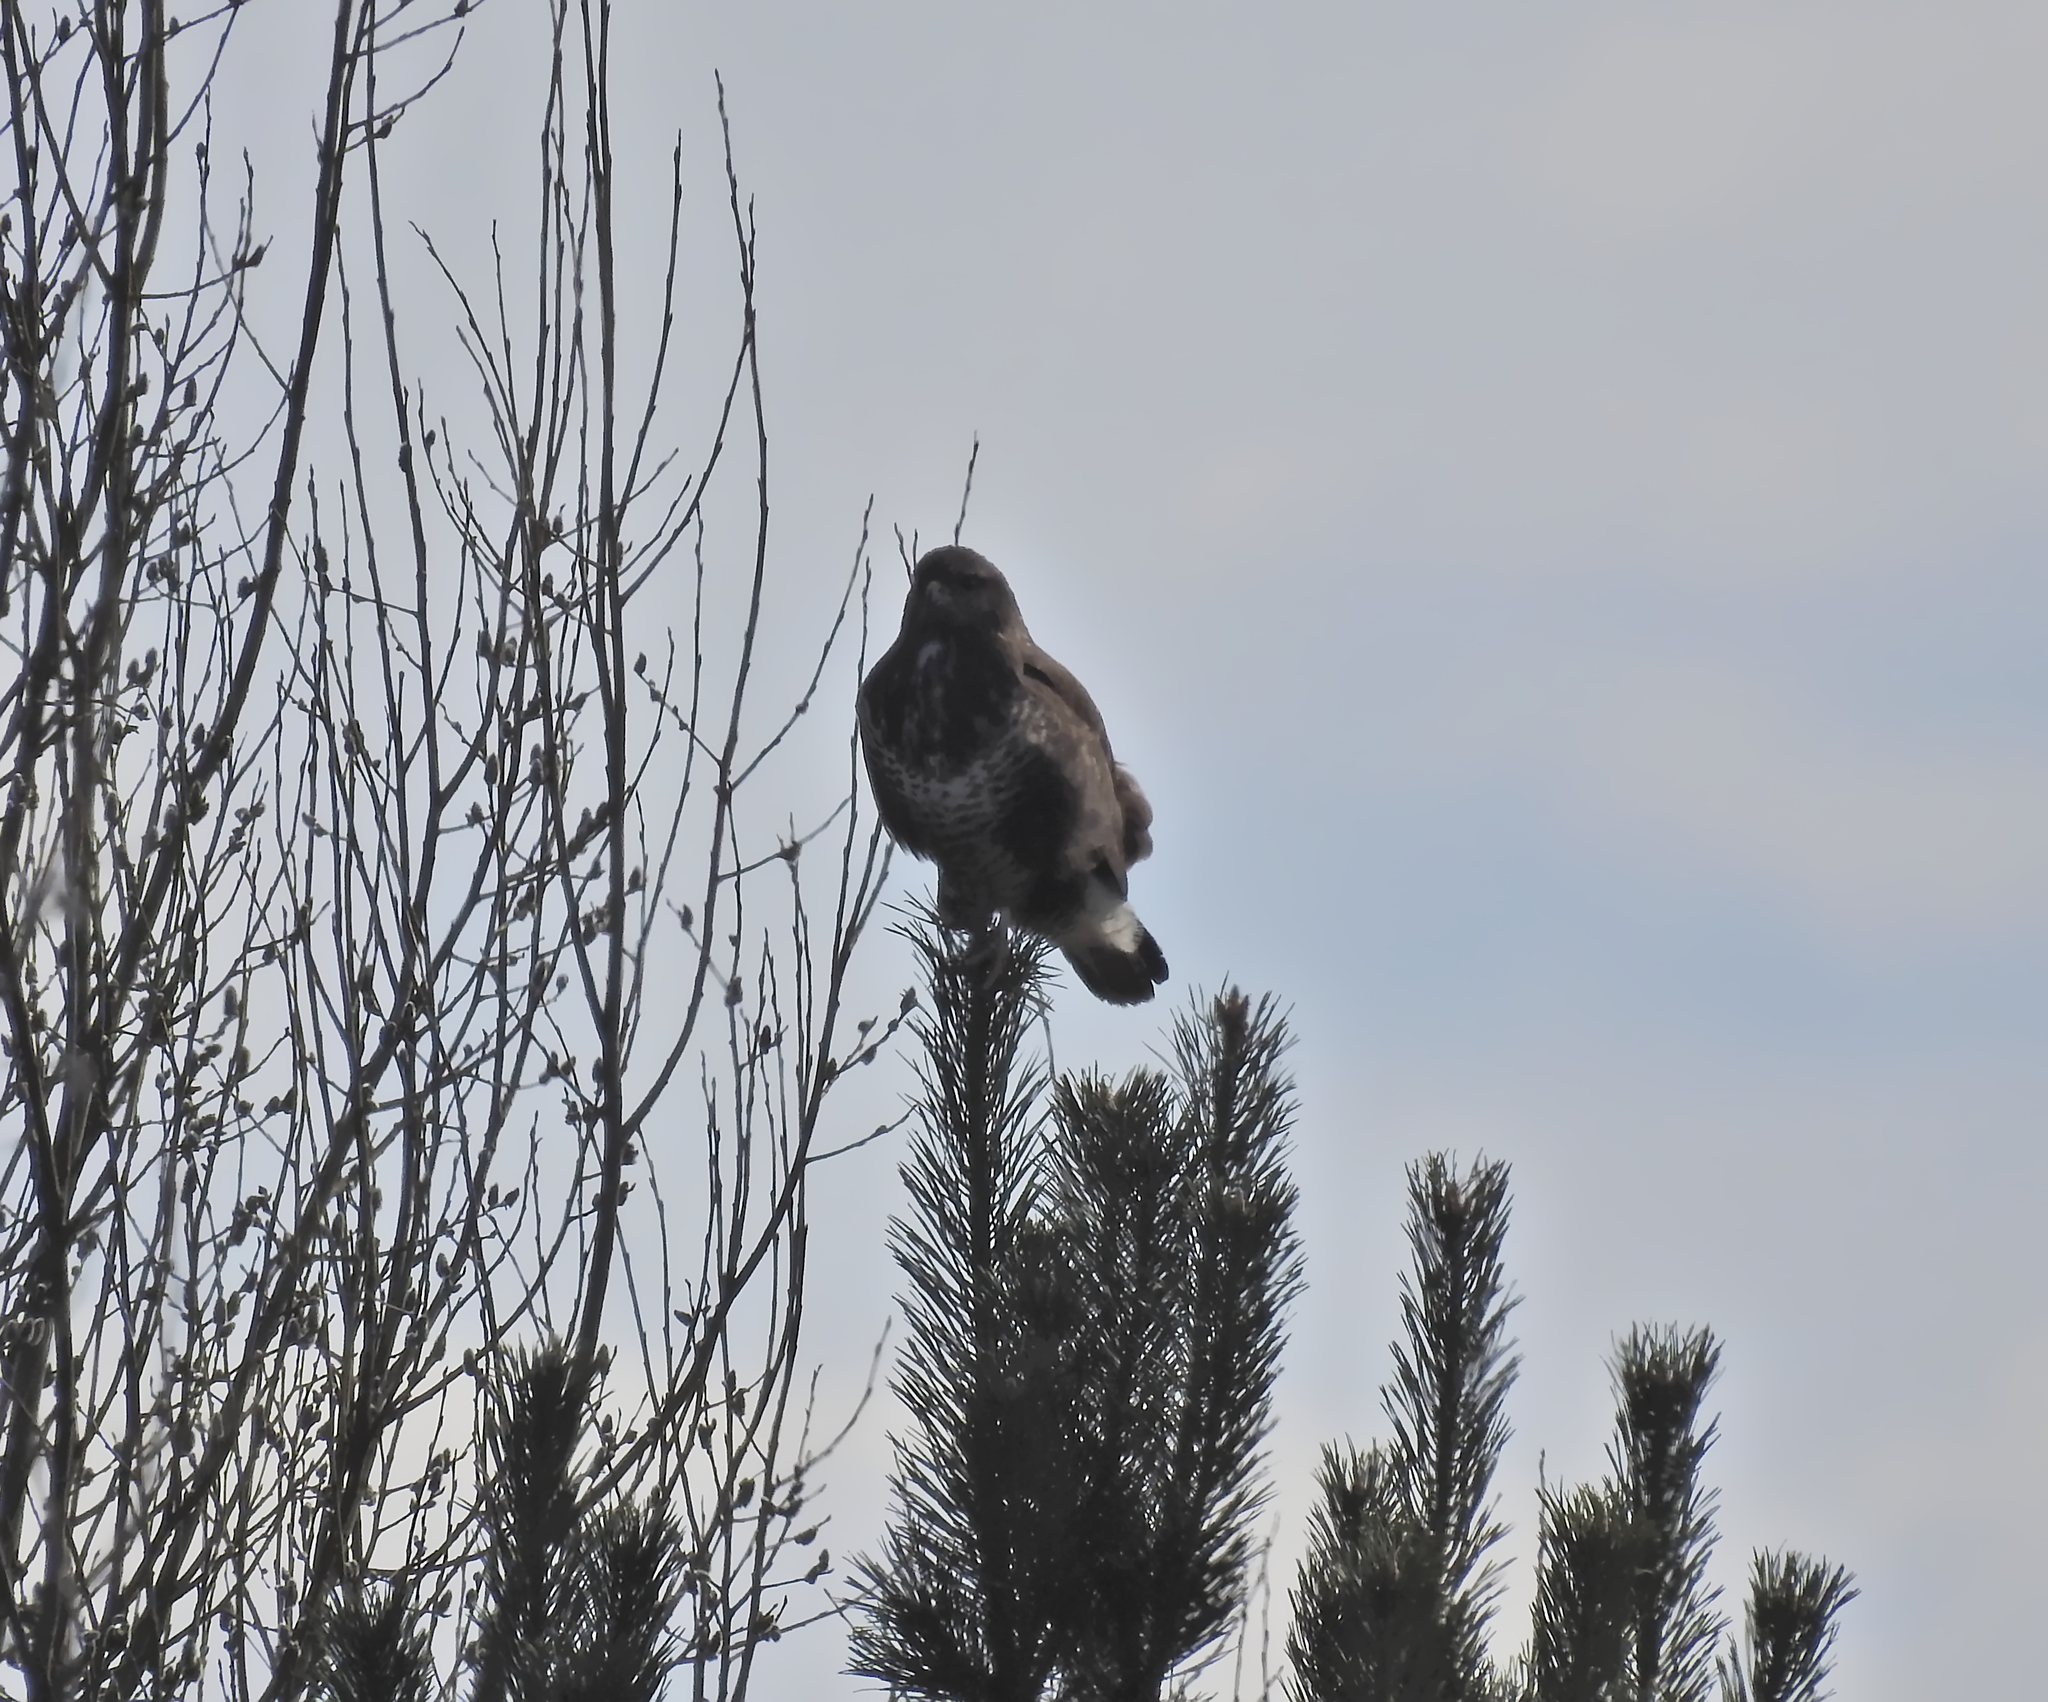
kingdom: Animalia
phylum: Chordata
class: Aves
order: Accipitriformes
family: Accipitridae
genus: Buteo
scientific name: Buteo buteo
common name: Common buzzard
